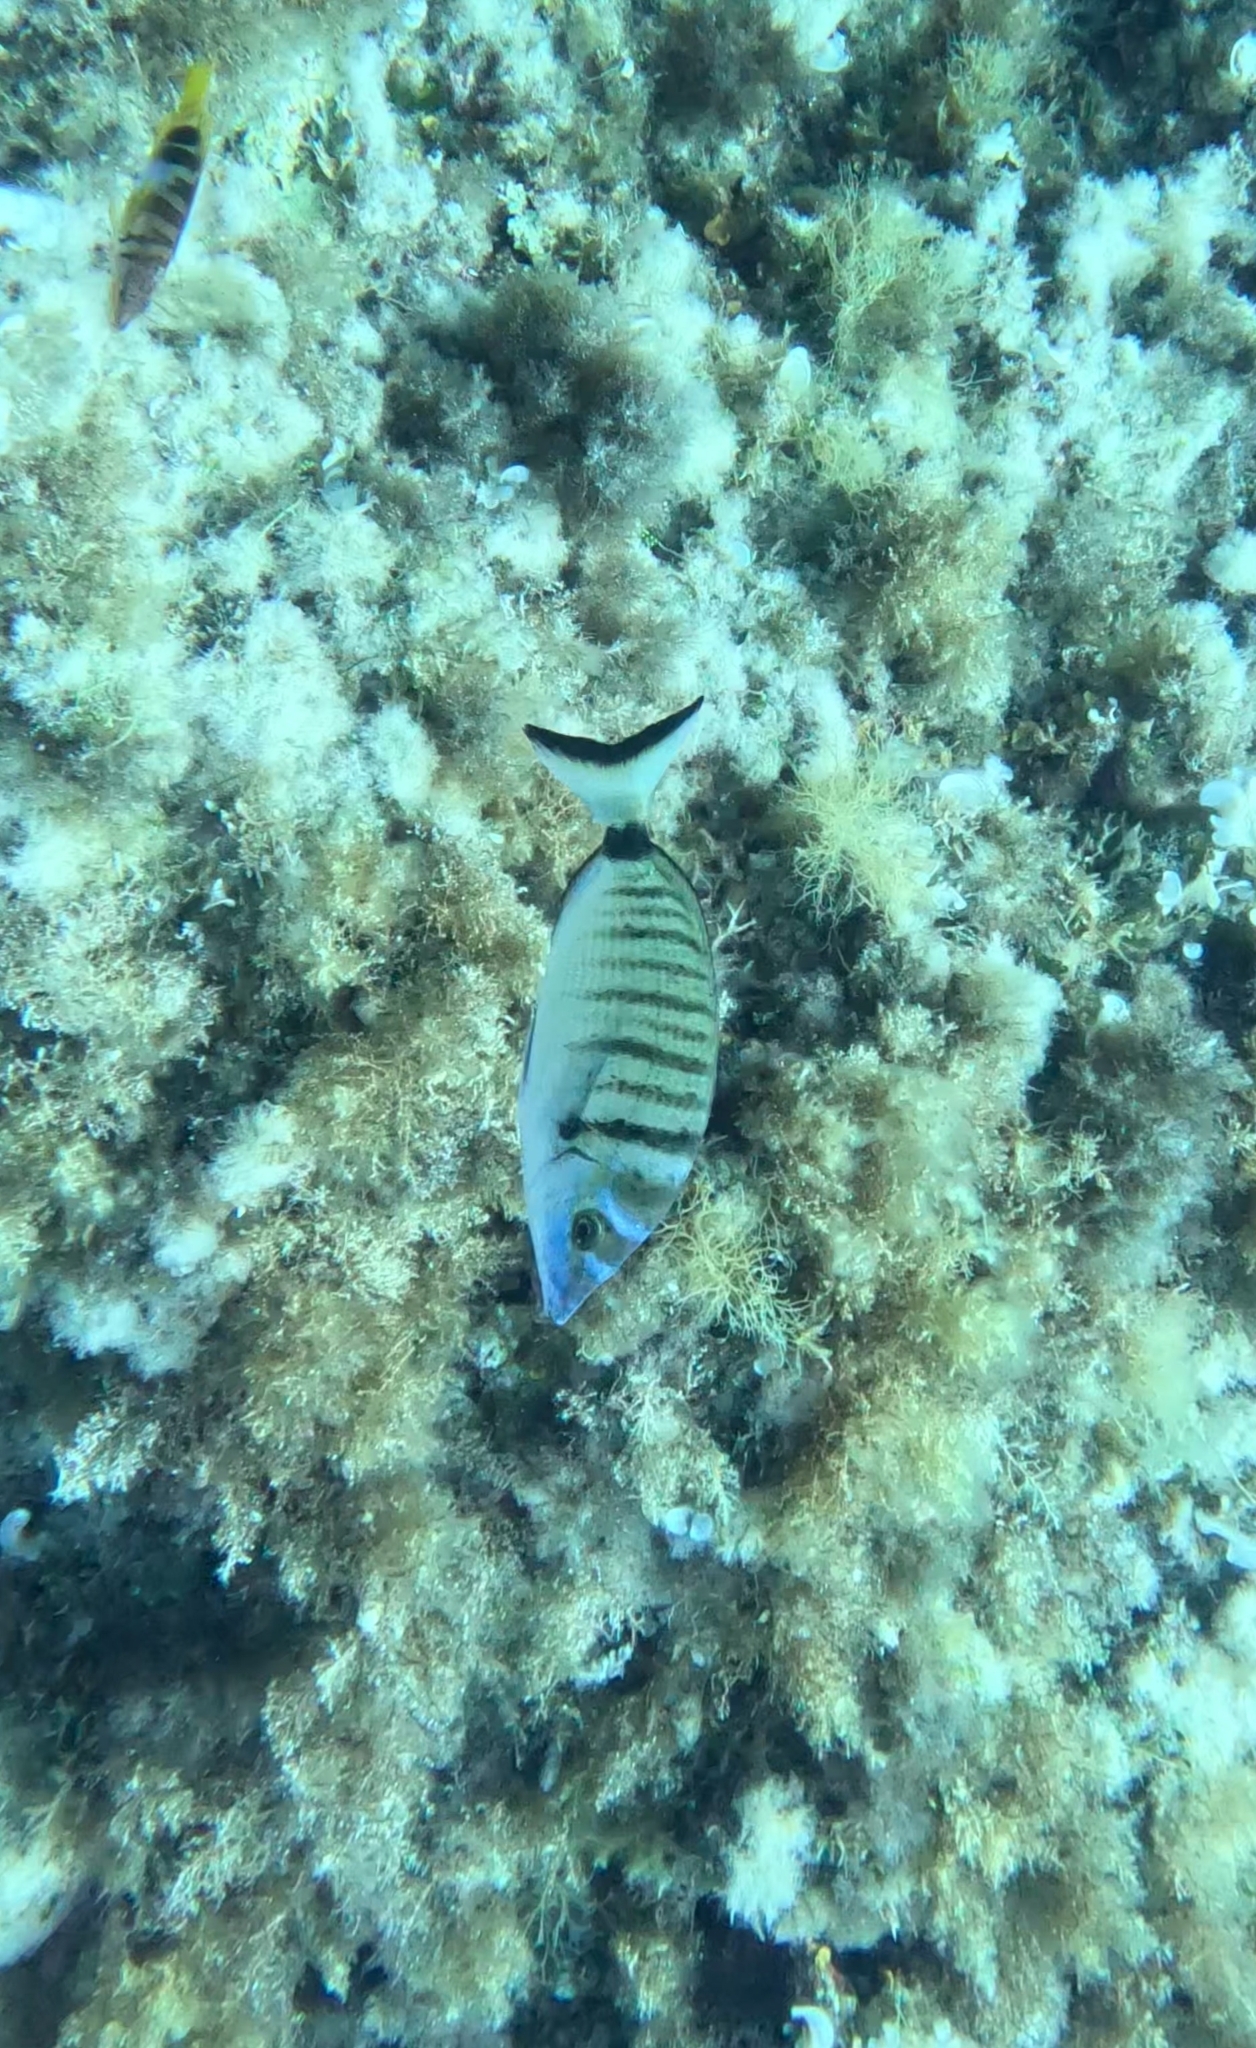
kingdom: Animalia
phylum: Chordata
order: Perciformes
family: Sparidae
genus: Diplodus
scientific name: Diplodus puntazzo
